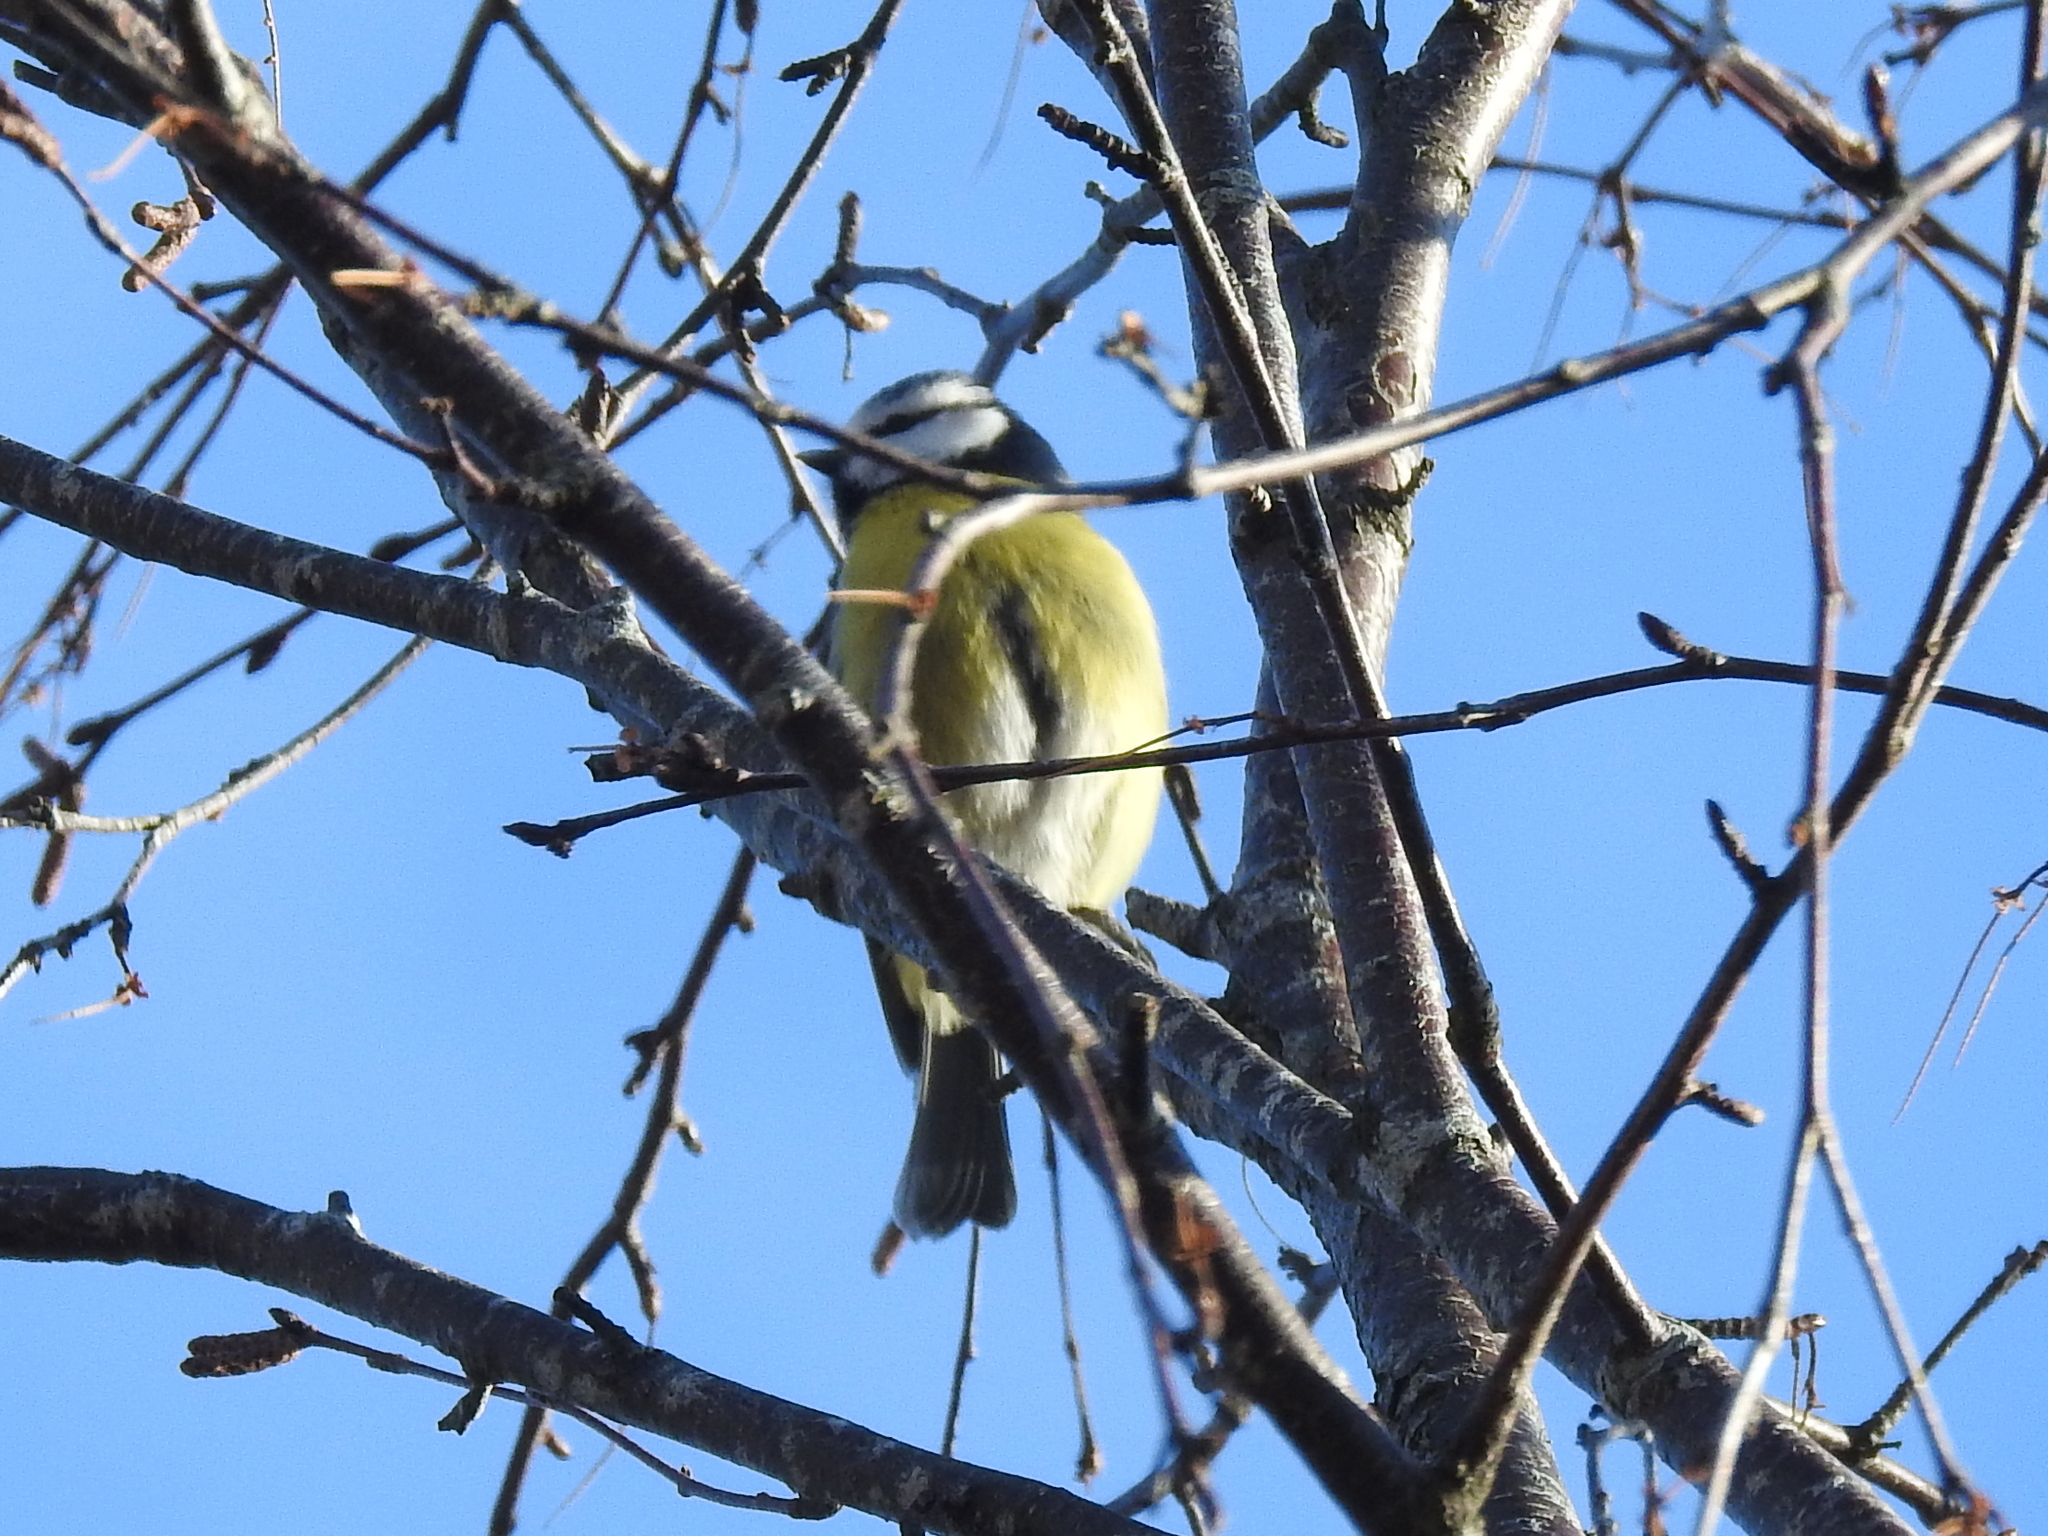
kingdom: Animalia
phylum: Chordata
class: Aves
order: Passeriformes
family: Paridae
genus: Cyanistes
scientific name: Cyanistes caeruleus
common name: Eurasian blue tit
